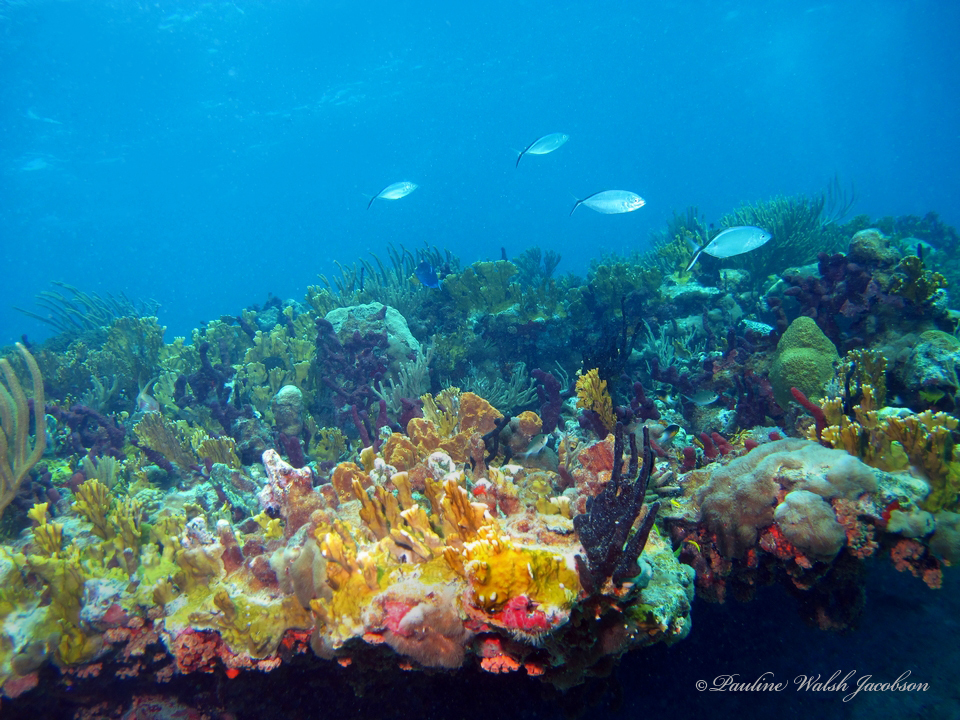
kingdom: Animalia
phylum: Chordata
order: Perciformes
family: Carangidae
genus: Caranx
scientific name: Caranx ruber
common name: Bar jack
